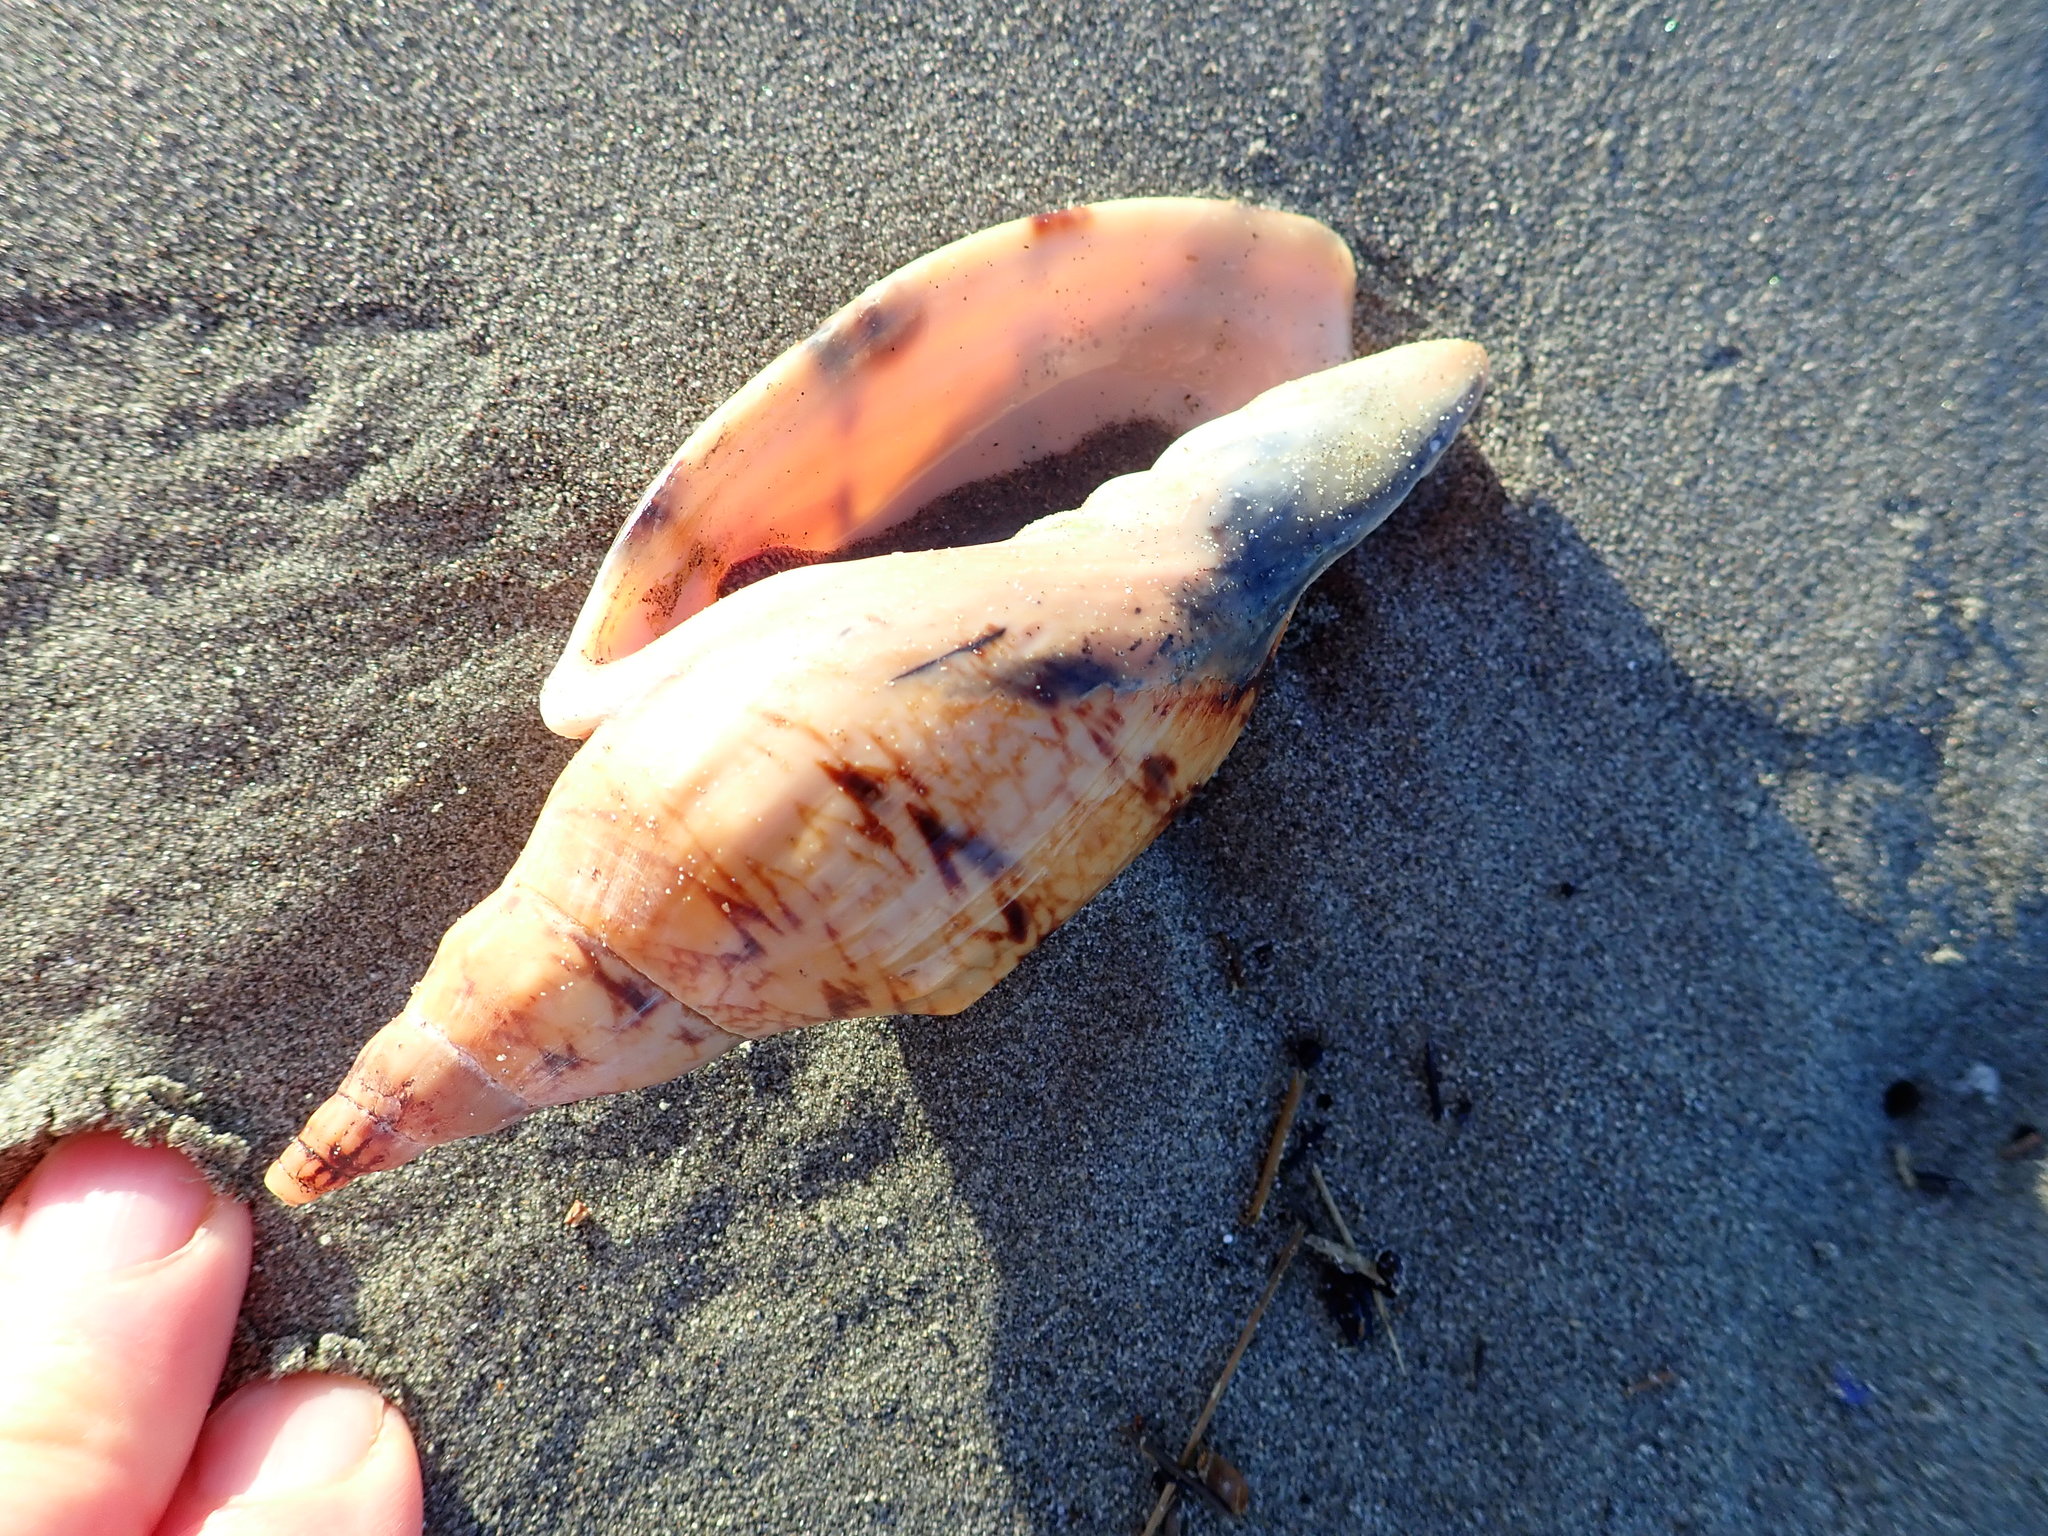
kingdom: Animalia
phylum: Mollusca
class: Gastropoda
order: Neogastropoda
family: Volutidae
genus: Alcithoe
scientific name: Alcithoe arabica
